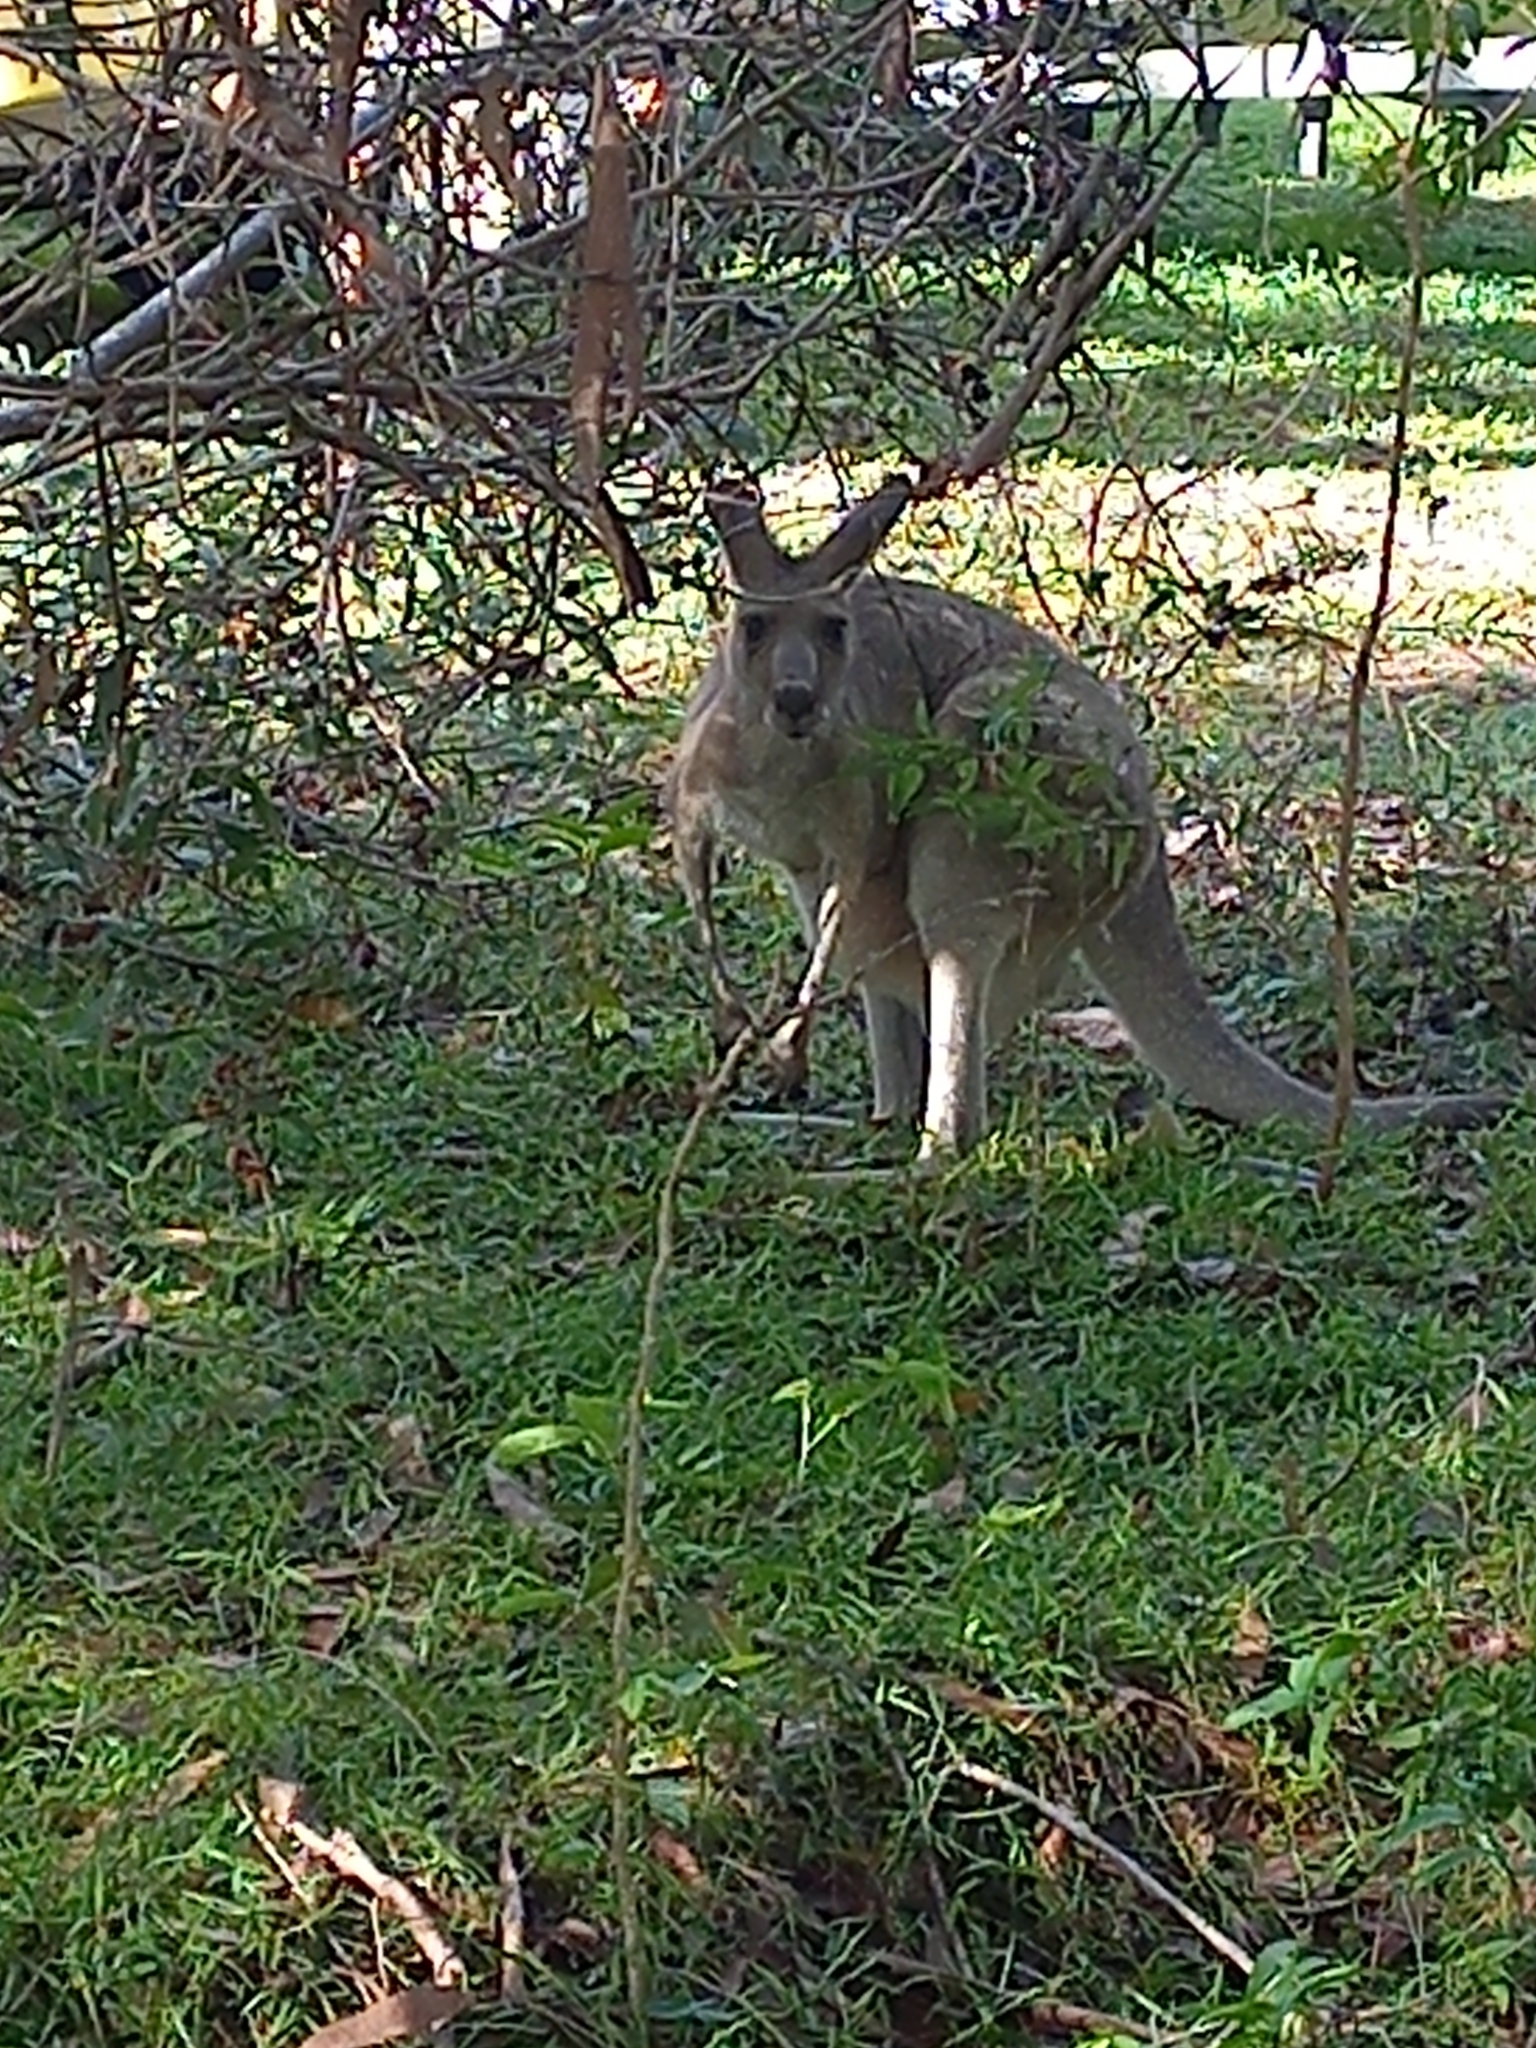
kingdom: Animalia
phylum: Chordata
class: Mammalia
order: Diprotodontia
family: Macropodidae
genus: Macropus
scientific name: Macropus giganteus
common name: Eastern grey kangaroo
